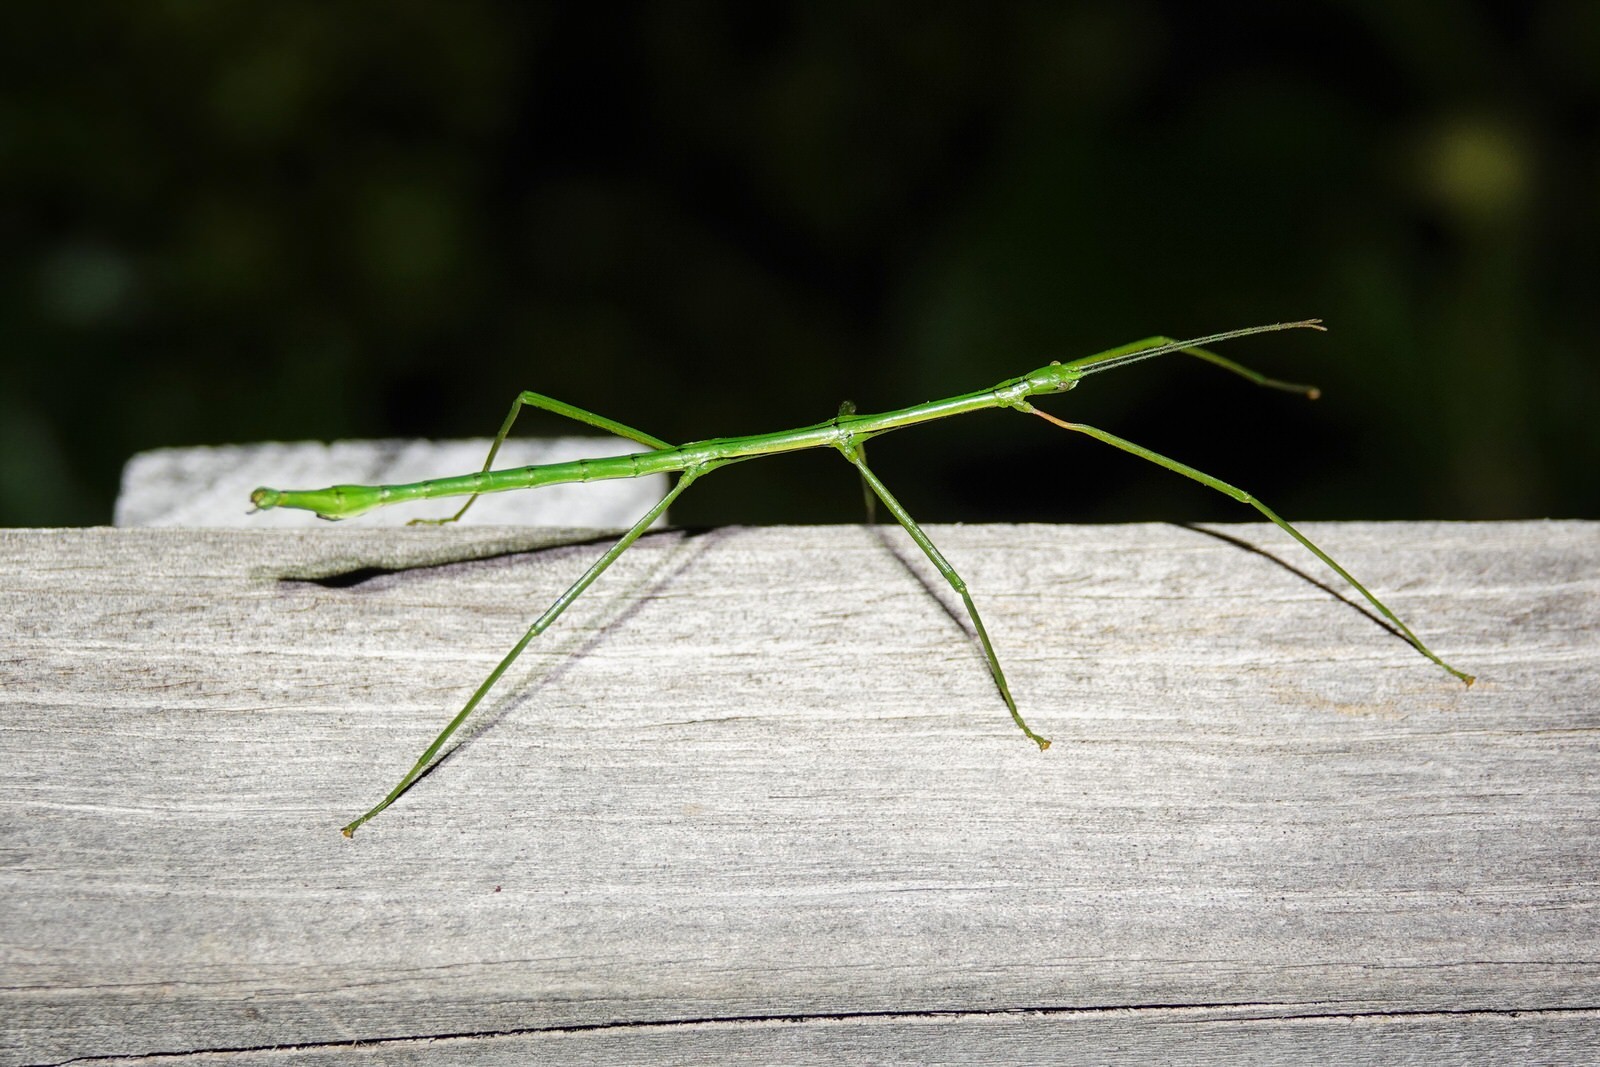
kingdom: Animalia
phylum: Arthropoda
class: Insecta
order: Phasmida
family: Phasmatidae
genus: Clitarchus
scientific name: Clitarchus hookeri
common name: Smooth stick insect
